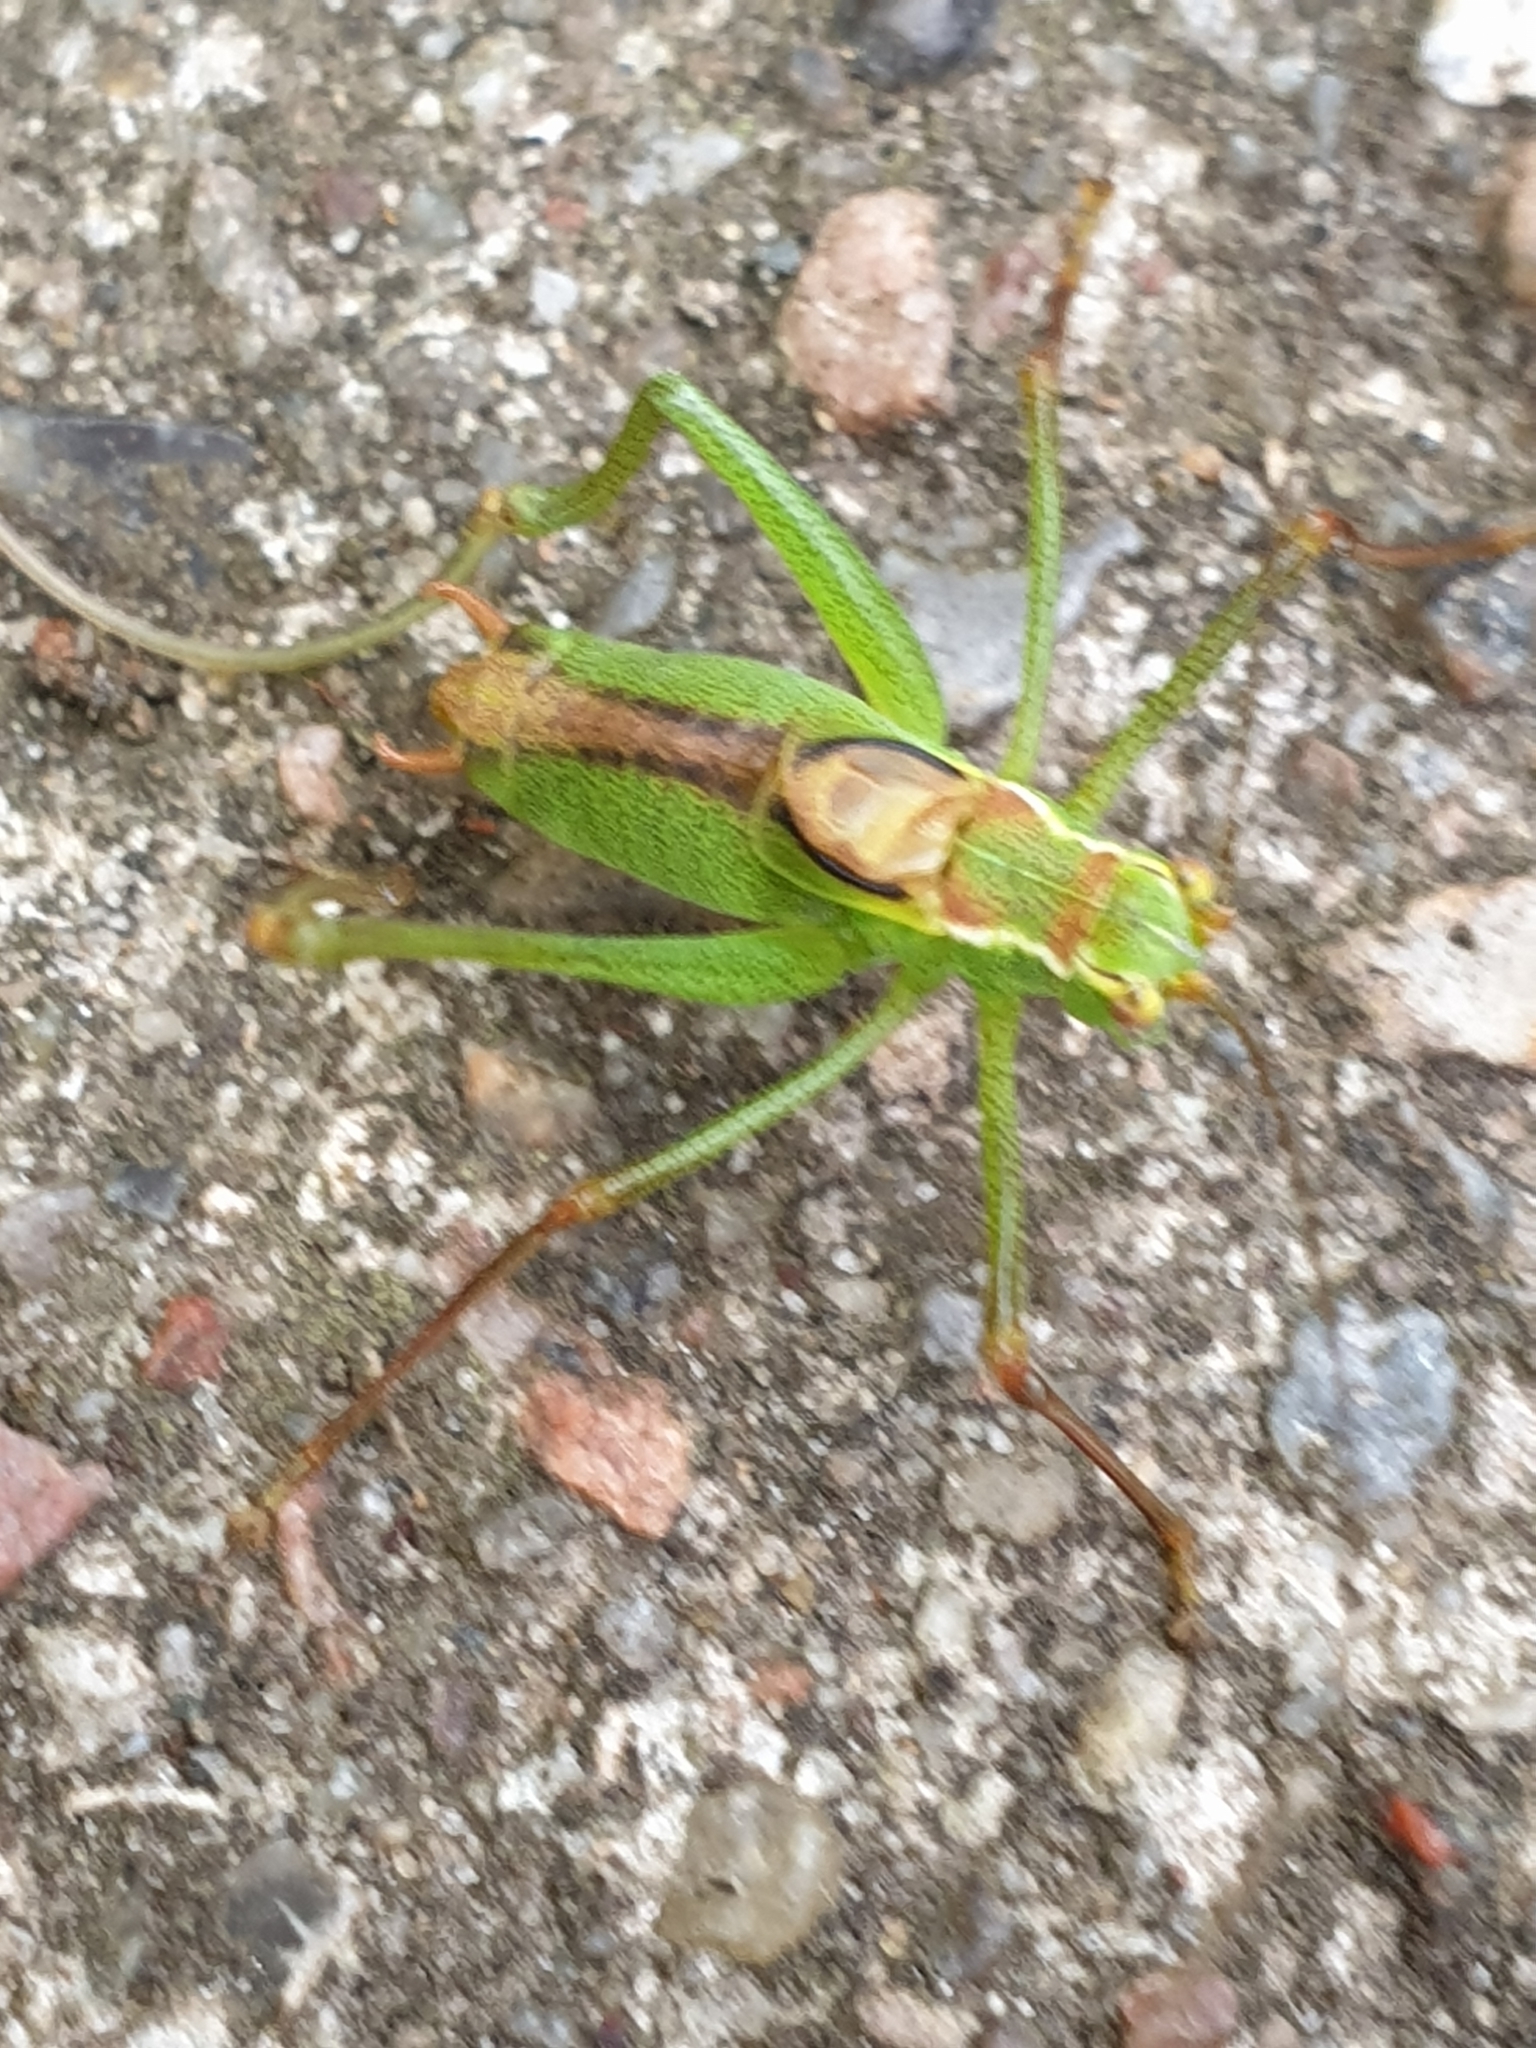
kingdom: Animalia
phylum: Arthropoda
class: Insecta
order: Orthoptera
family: Tettigoniidae
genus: Leptophyes
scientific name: Leptophyes punctatissima
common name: Speckled bush-cricket
